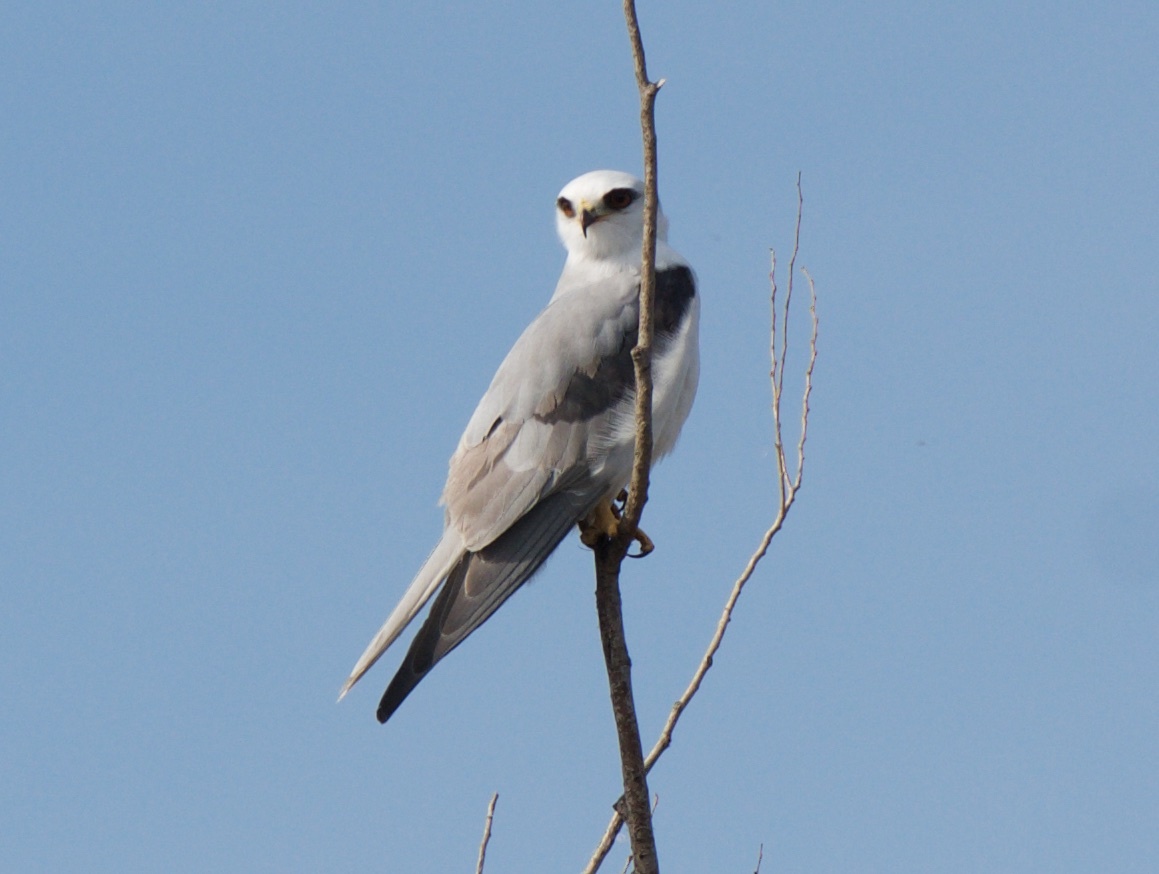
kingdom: Animalia
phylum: Chordata
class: Aves
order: Accipitriformes
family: Accipitridae
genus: Elanus
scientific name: Elanus leucurus
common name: White-tailed kite
